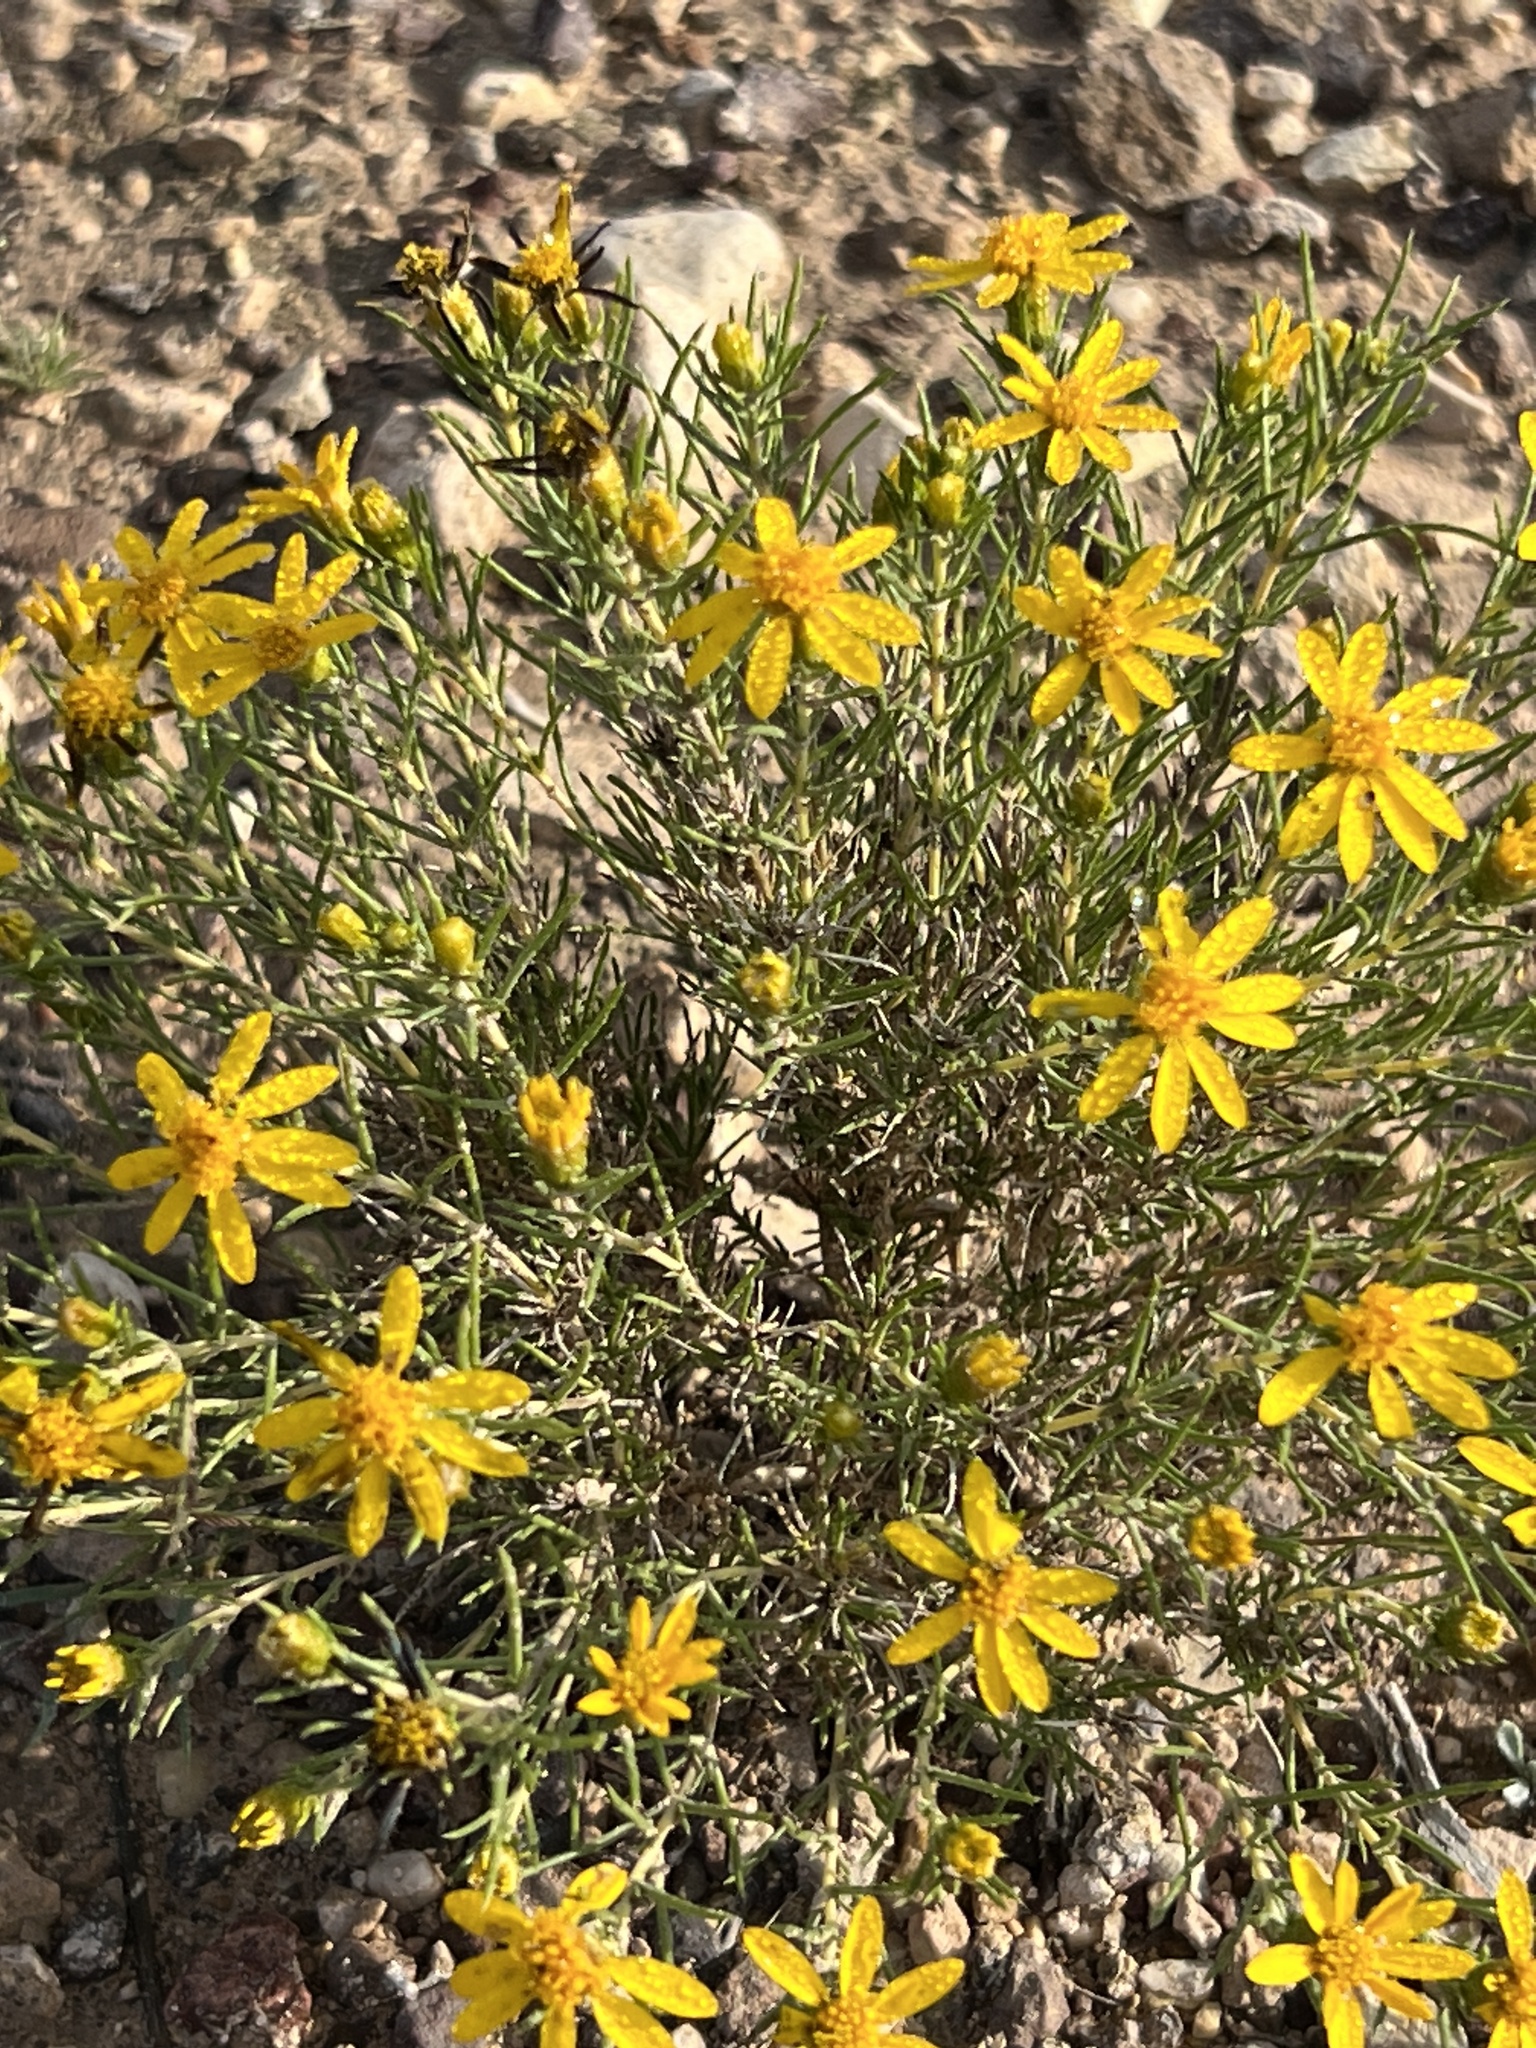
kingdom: Plantae
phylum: Tracheophyta
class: Magnoliopsida
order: Asterales
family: Asteraceae
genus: Thymophylla
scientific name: Thymophylla acerosa
